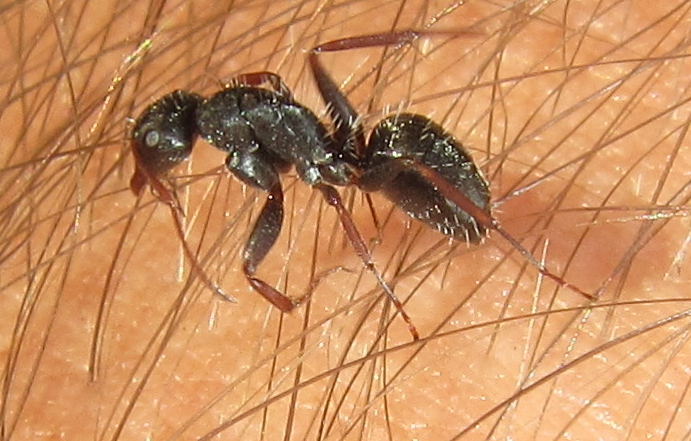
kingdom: Animalia
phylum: Arthropoda
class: Insecta
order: Hymenoptera
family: Formicidae
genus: Camponotus
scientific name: Camponotus auropubens
